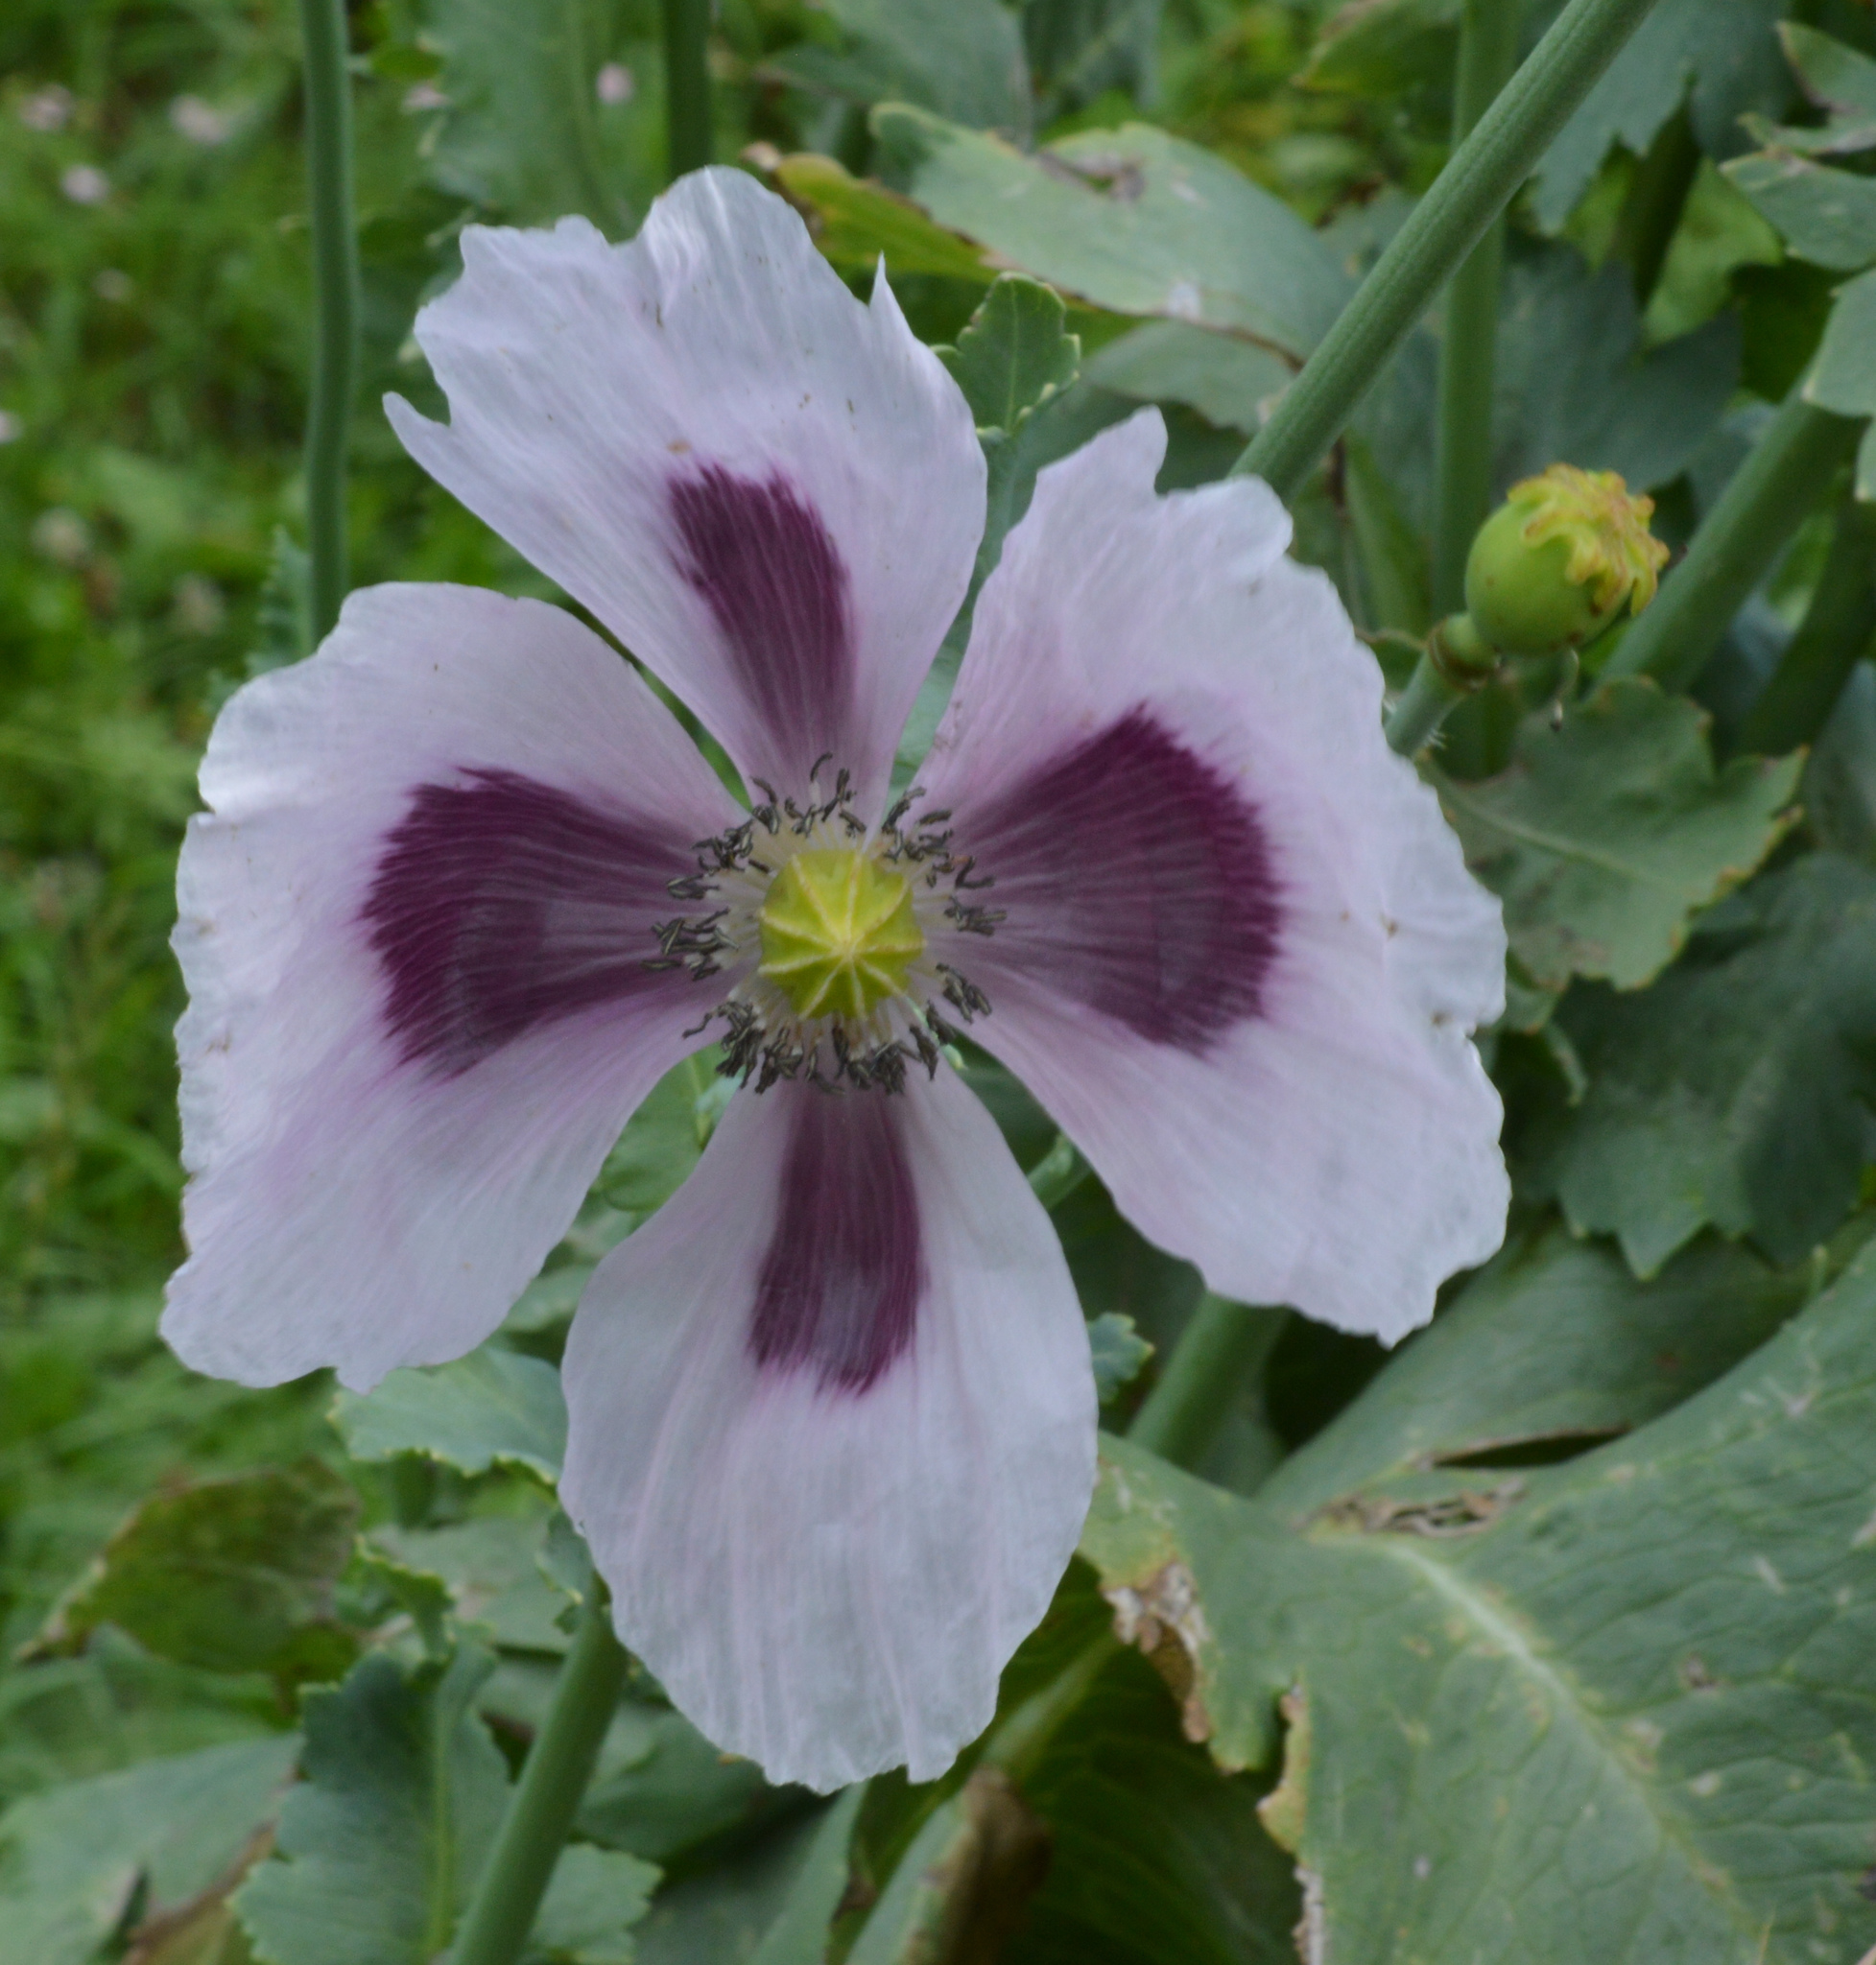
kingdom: Plantae
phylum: Tracheophyta
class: Magnoliopsida
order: Ranunculales
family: Papaveraceae
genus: Papaver
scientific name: Papaver somniferum
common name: Opium poppy
